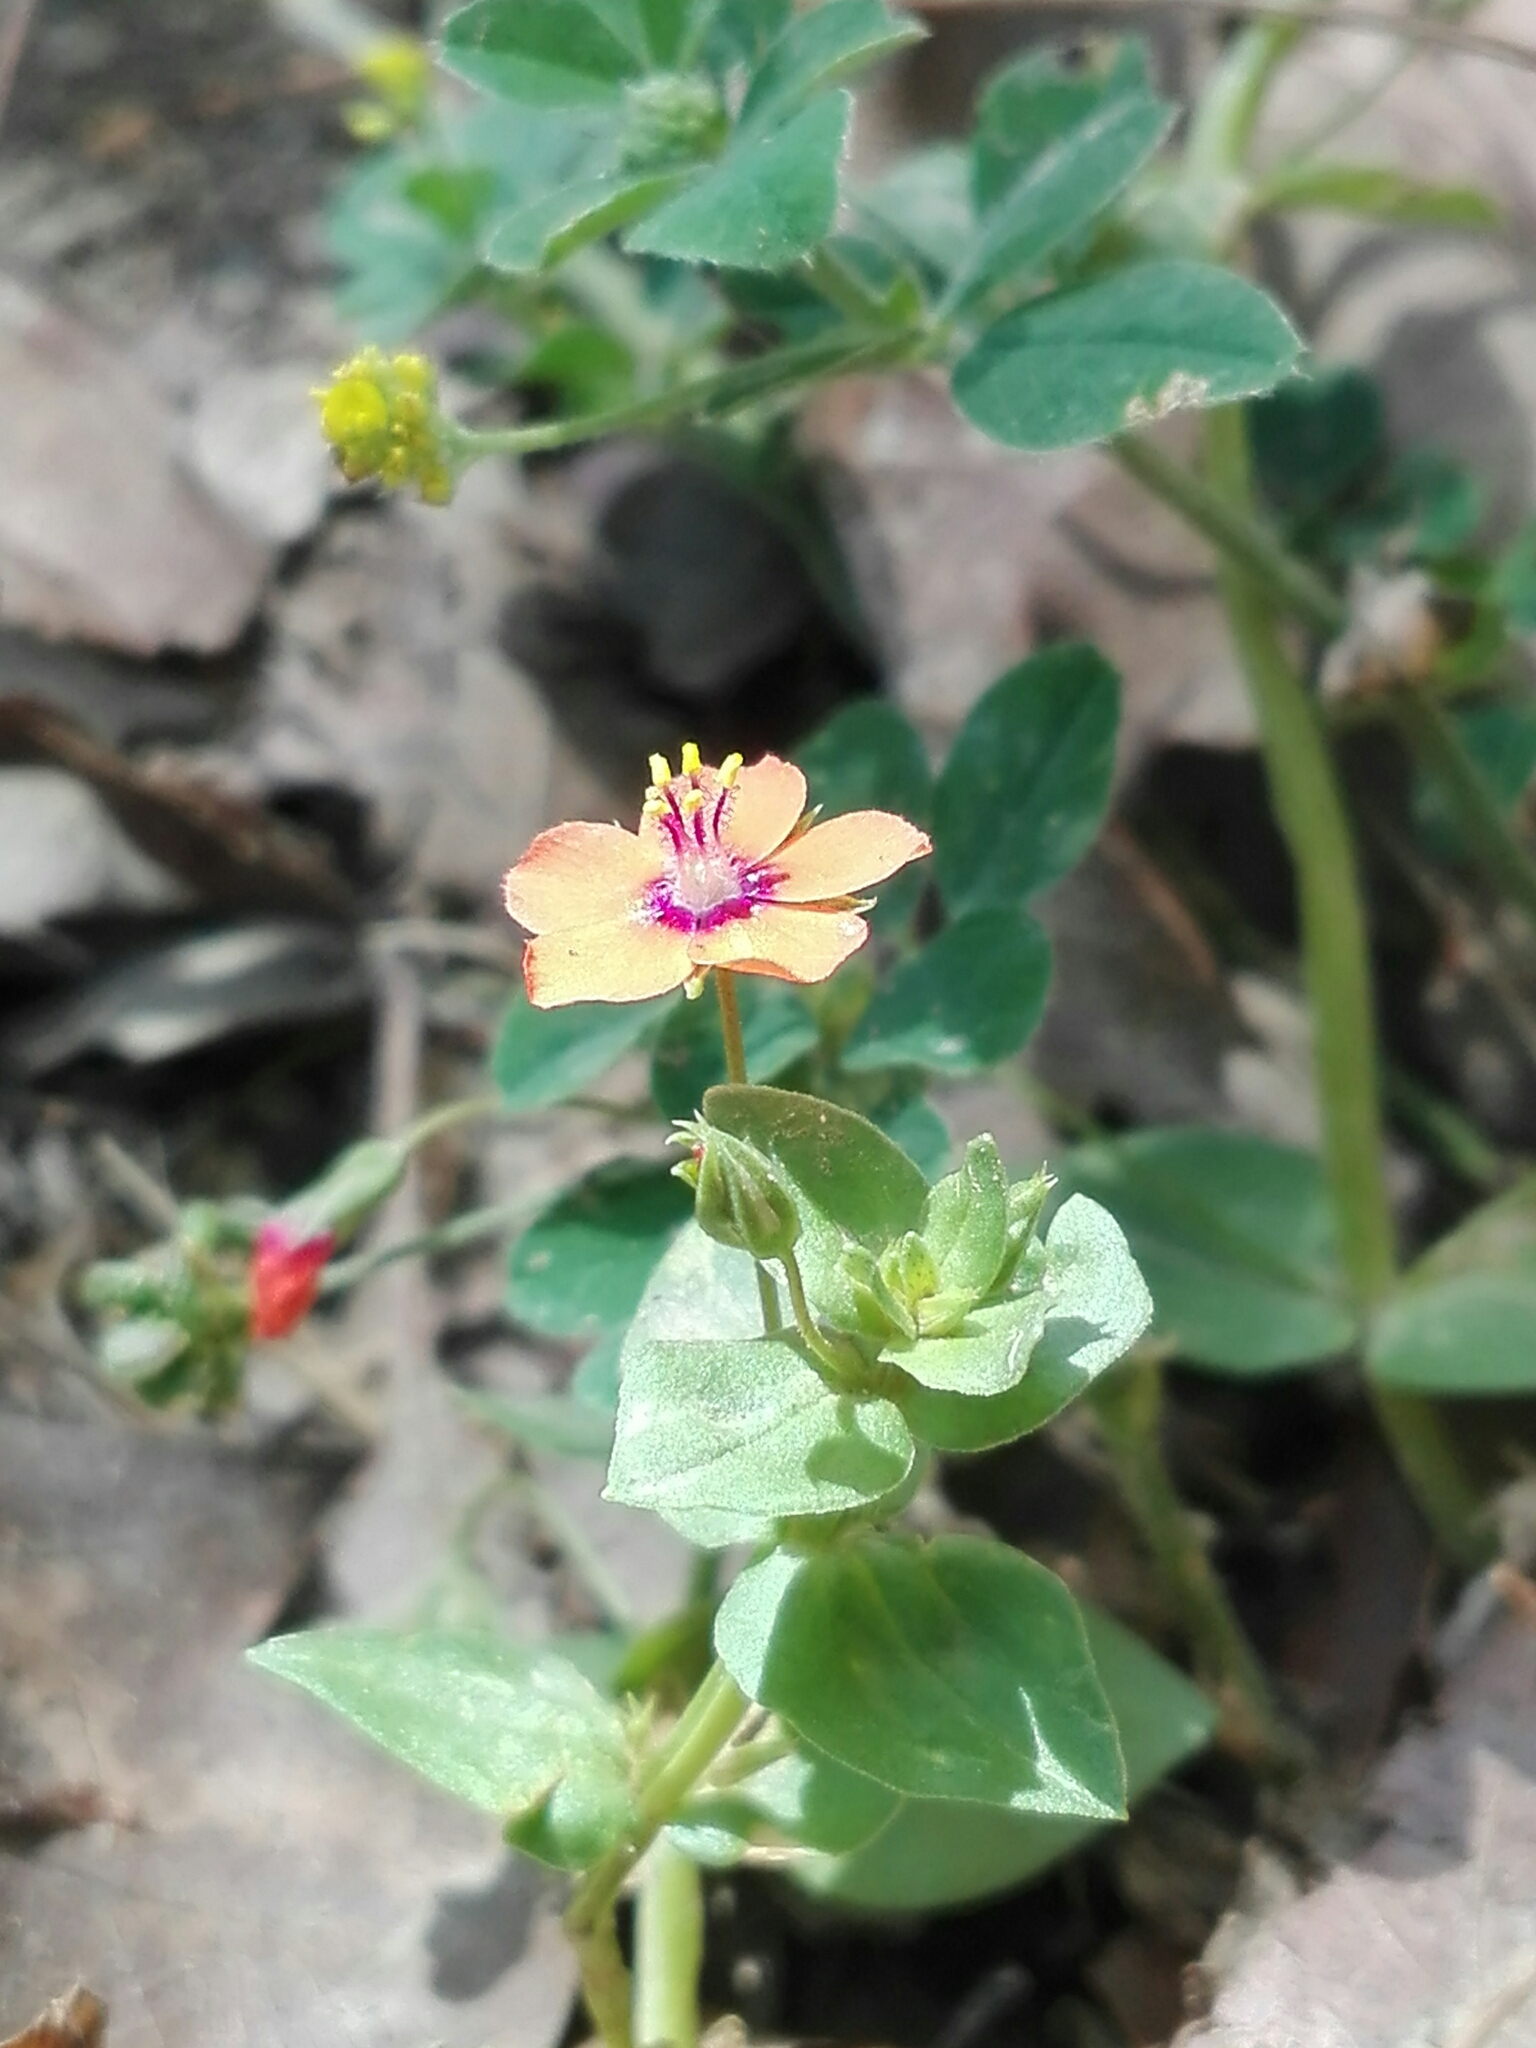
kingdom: Plantae
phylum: Tracheophyta
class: Magnoliopsida
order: Ericales
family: Primulaceae
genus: Lysimachia
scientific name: Lysimachia arvensis
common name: Scarlet pimpernel
